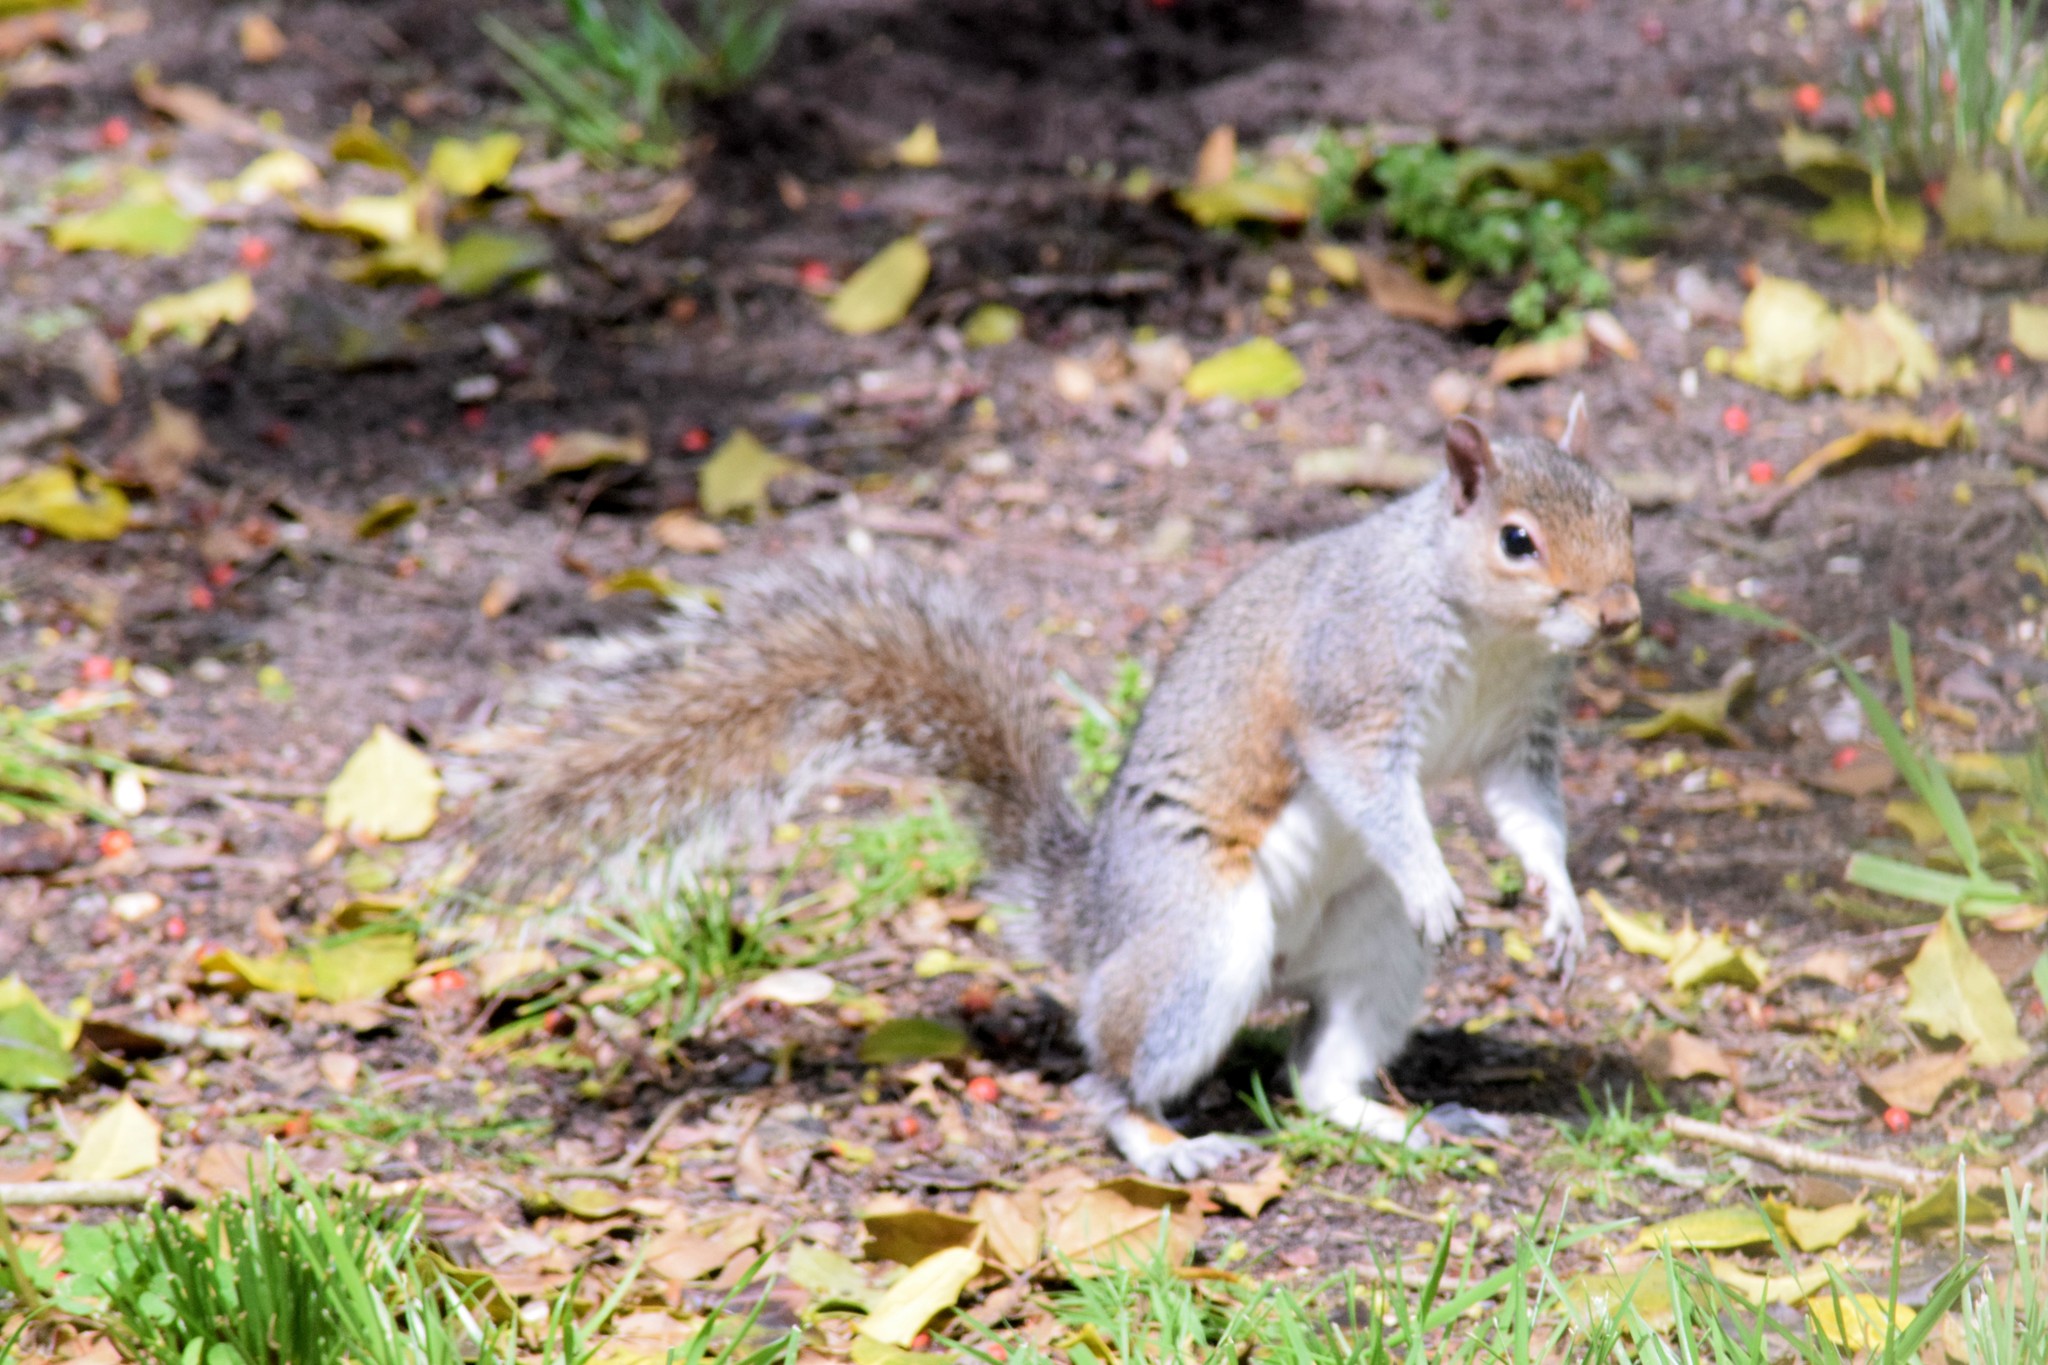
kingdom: Animalia
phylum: Chordata
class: Mammalia
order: Rodentia
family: Sciuridae
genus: Sciurus
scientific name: Sciurus carolinensis
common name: Eastern gray squirrel
